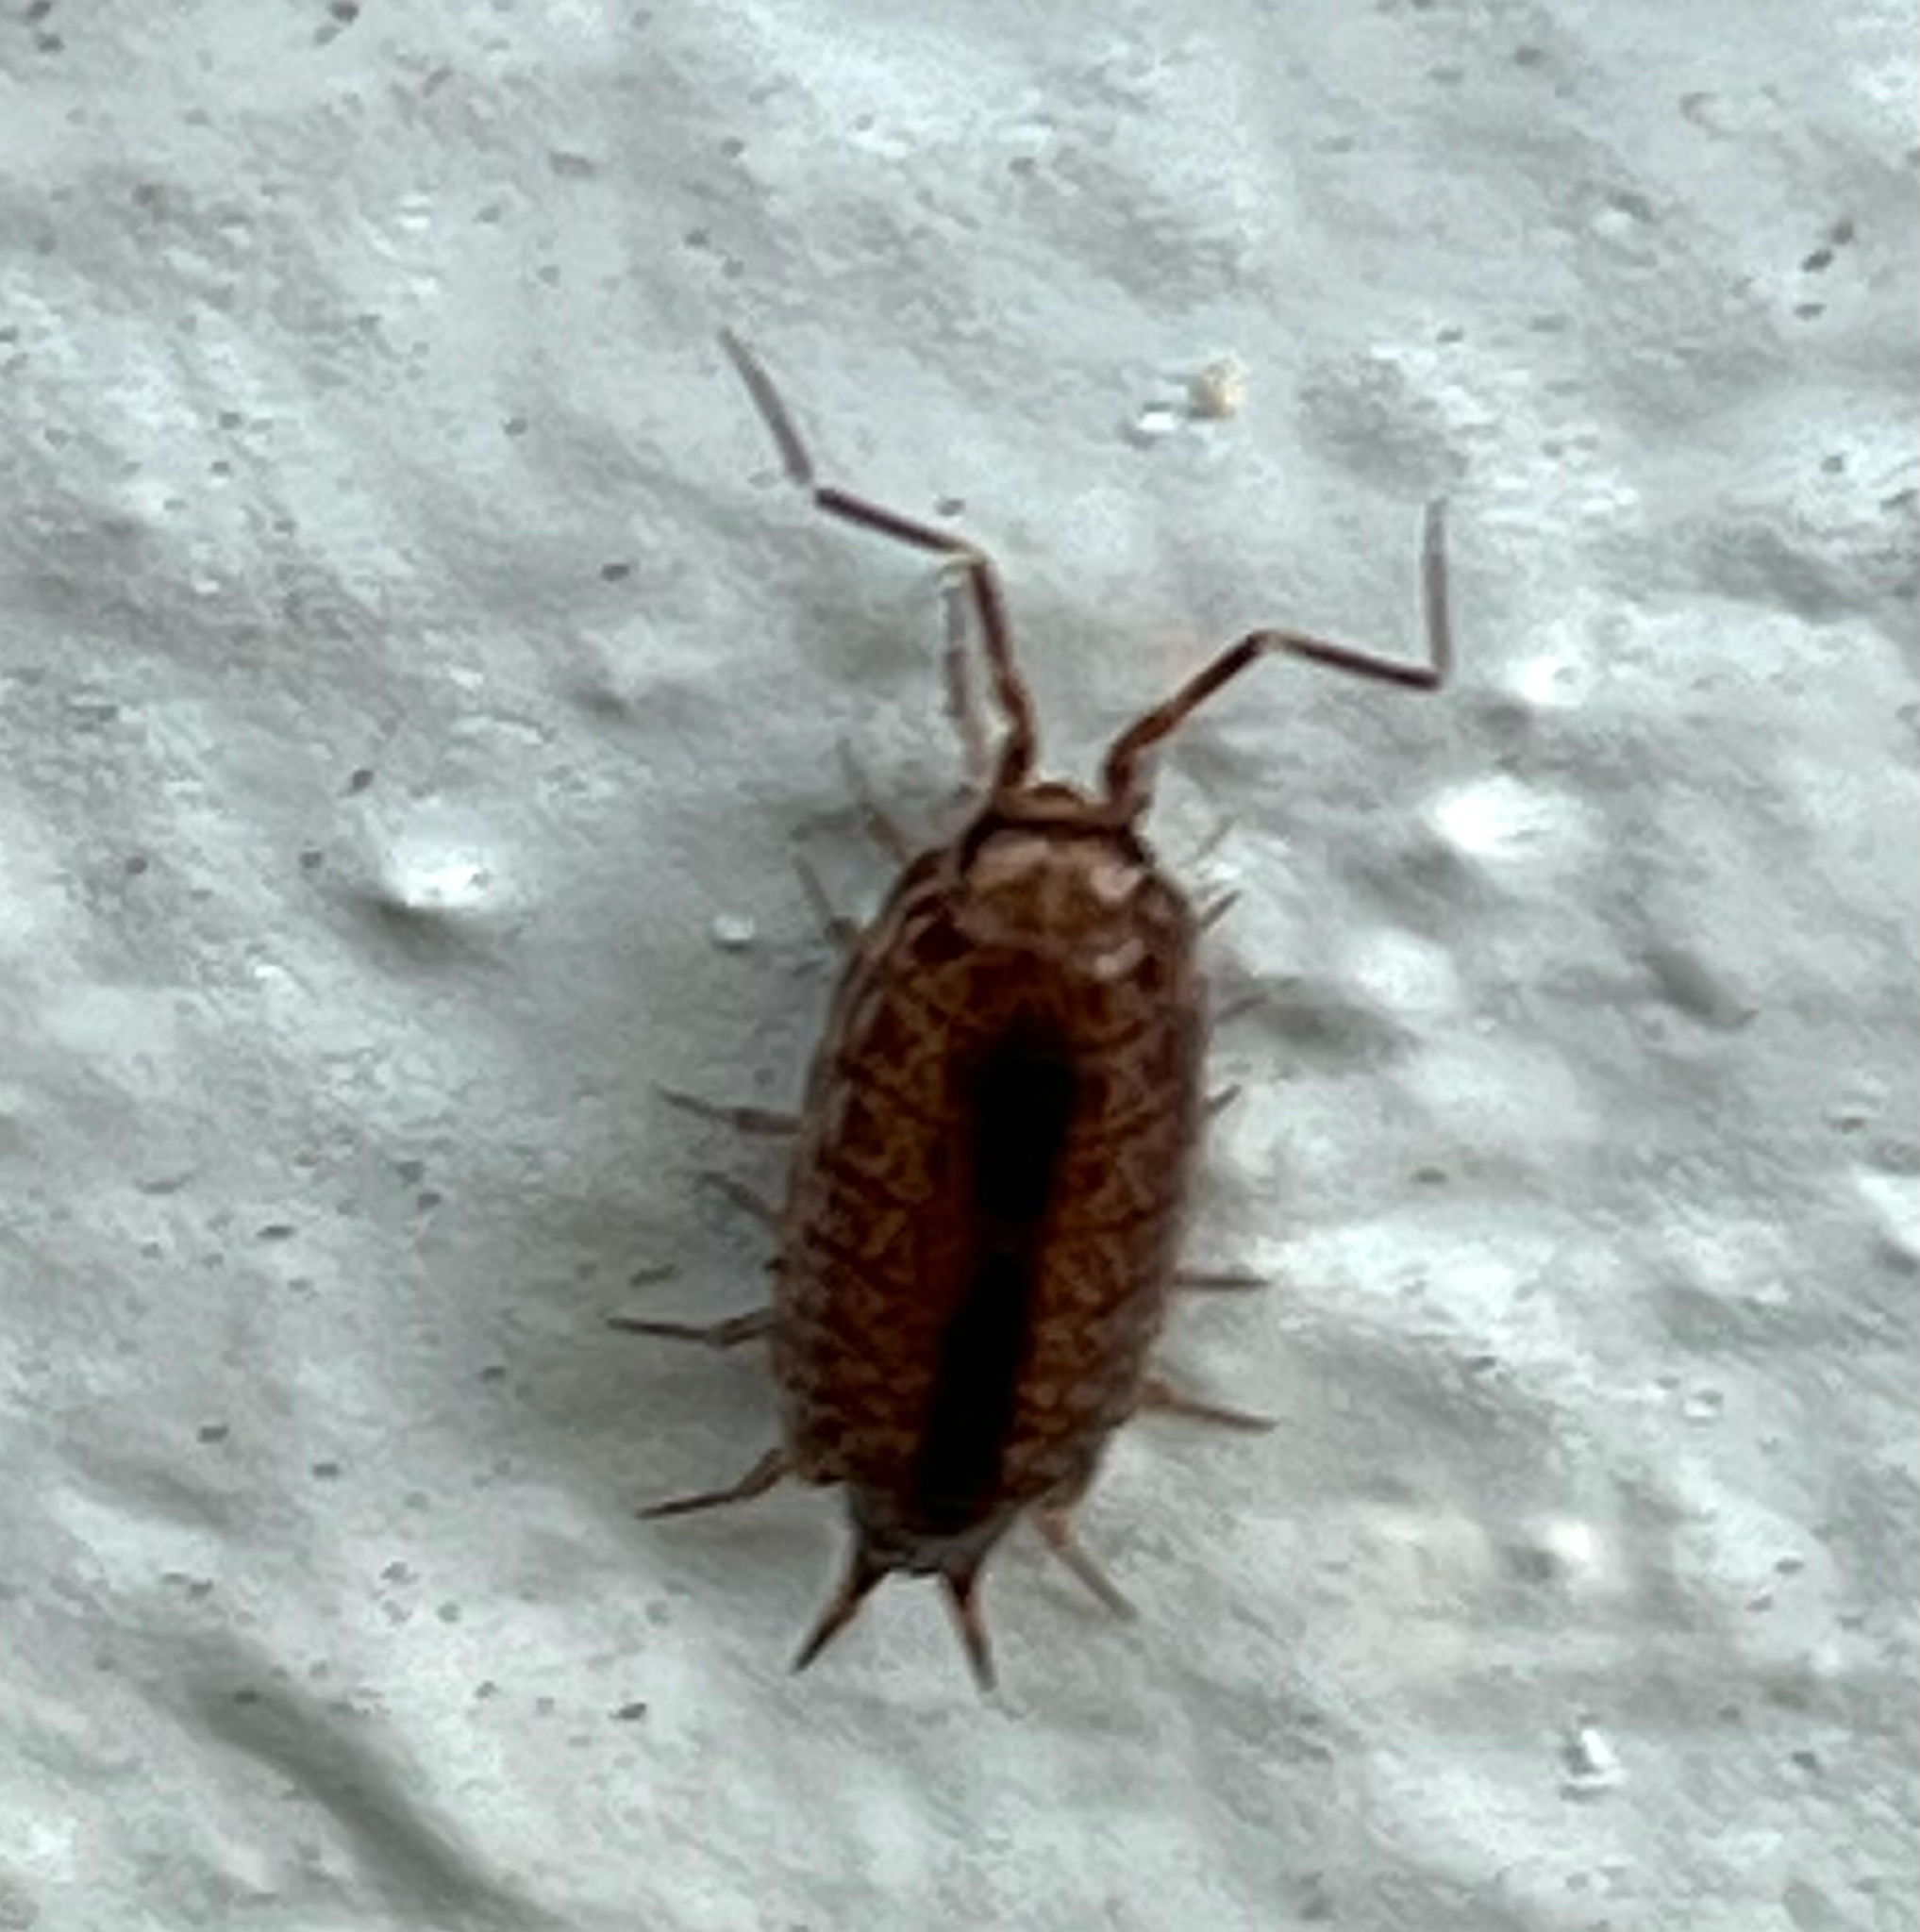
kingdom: Animalia
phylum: Arthropoda
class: Malacostraca
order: Isopoda
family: Philosciidae
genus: Atlantoscia
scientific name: Atlantoscia floridana
